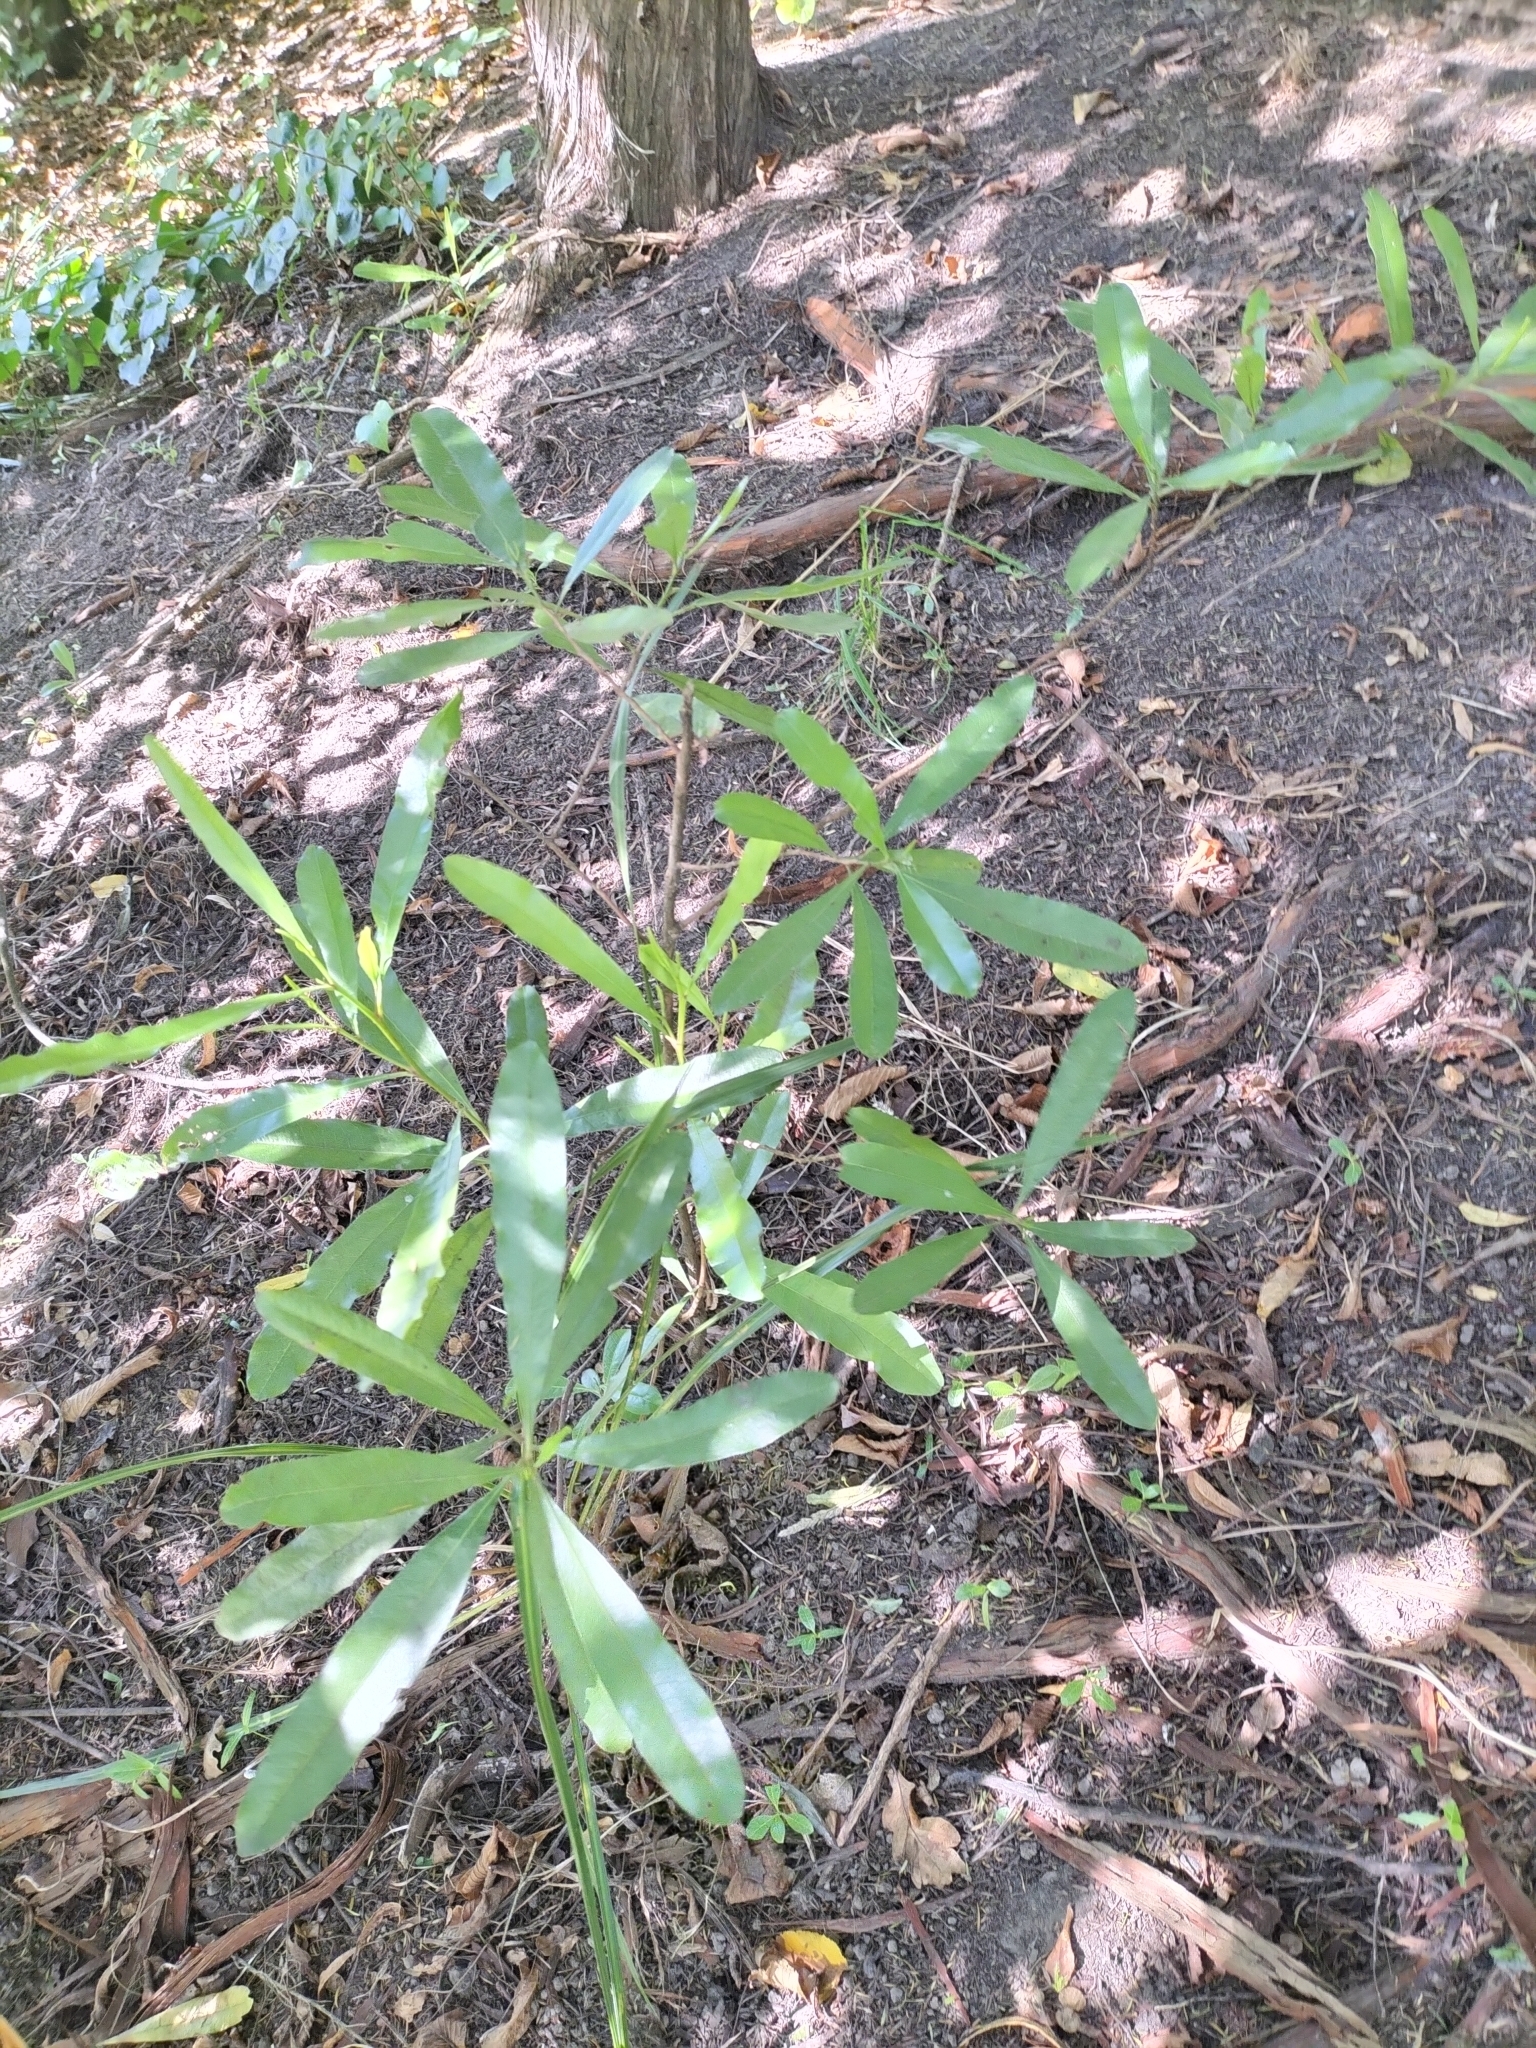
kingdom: Plantae
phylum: Tracheophyta
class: Magnoliopsida
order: Sapindales
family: Sapindaceae
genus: Dodonaea
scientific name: Dodonaea viscosa
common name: Hopbush
